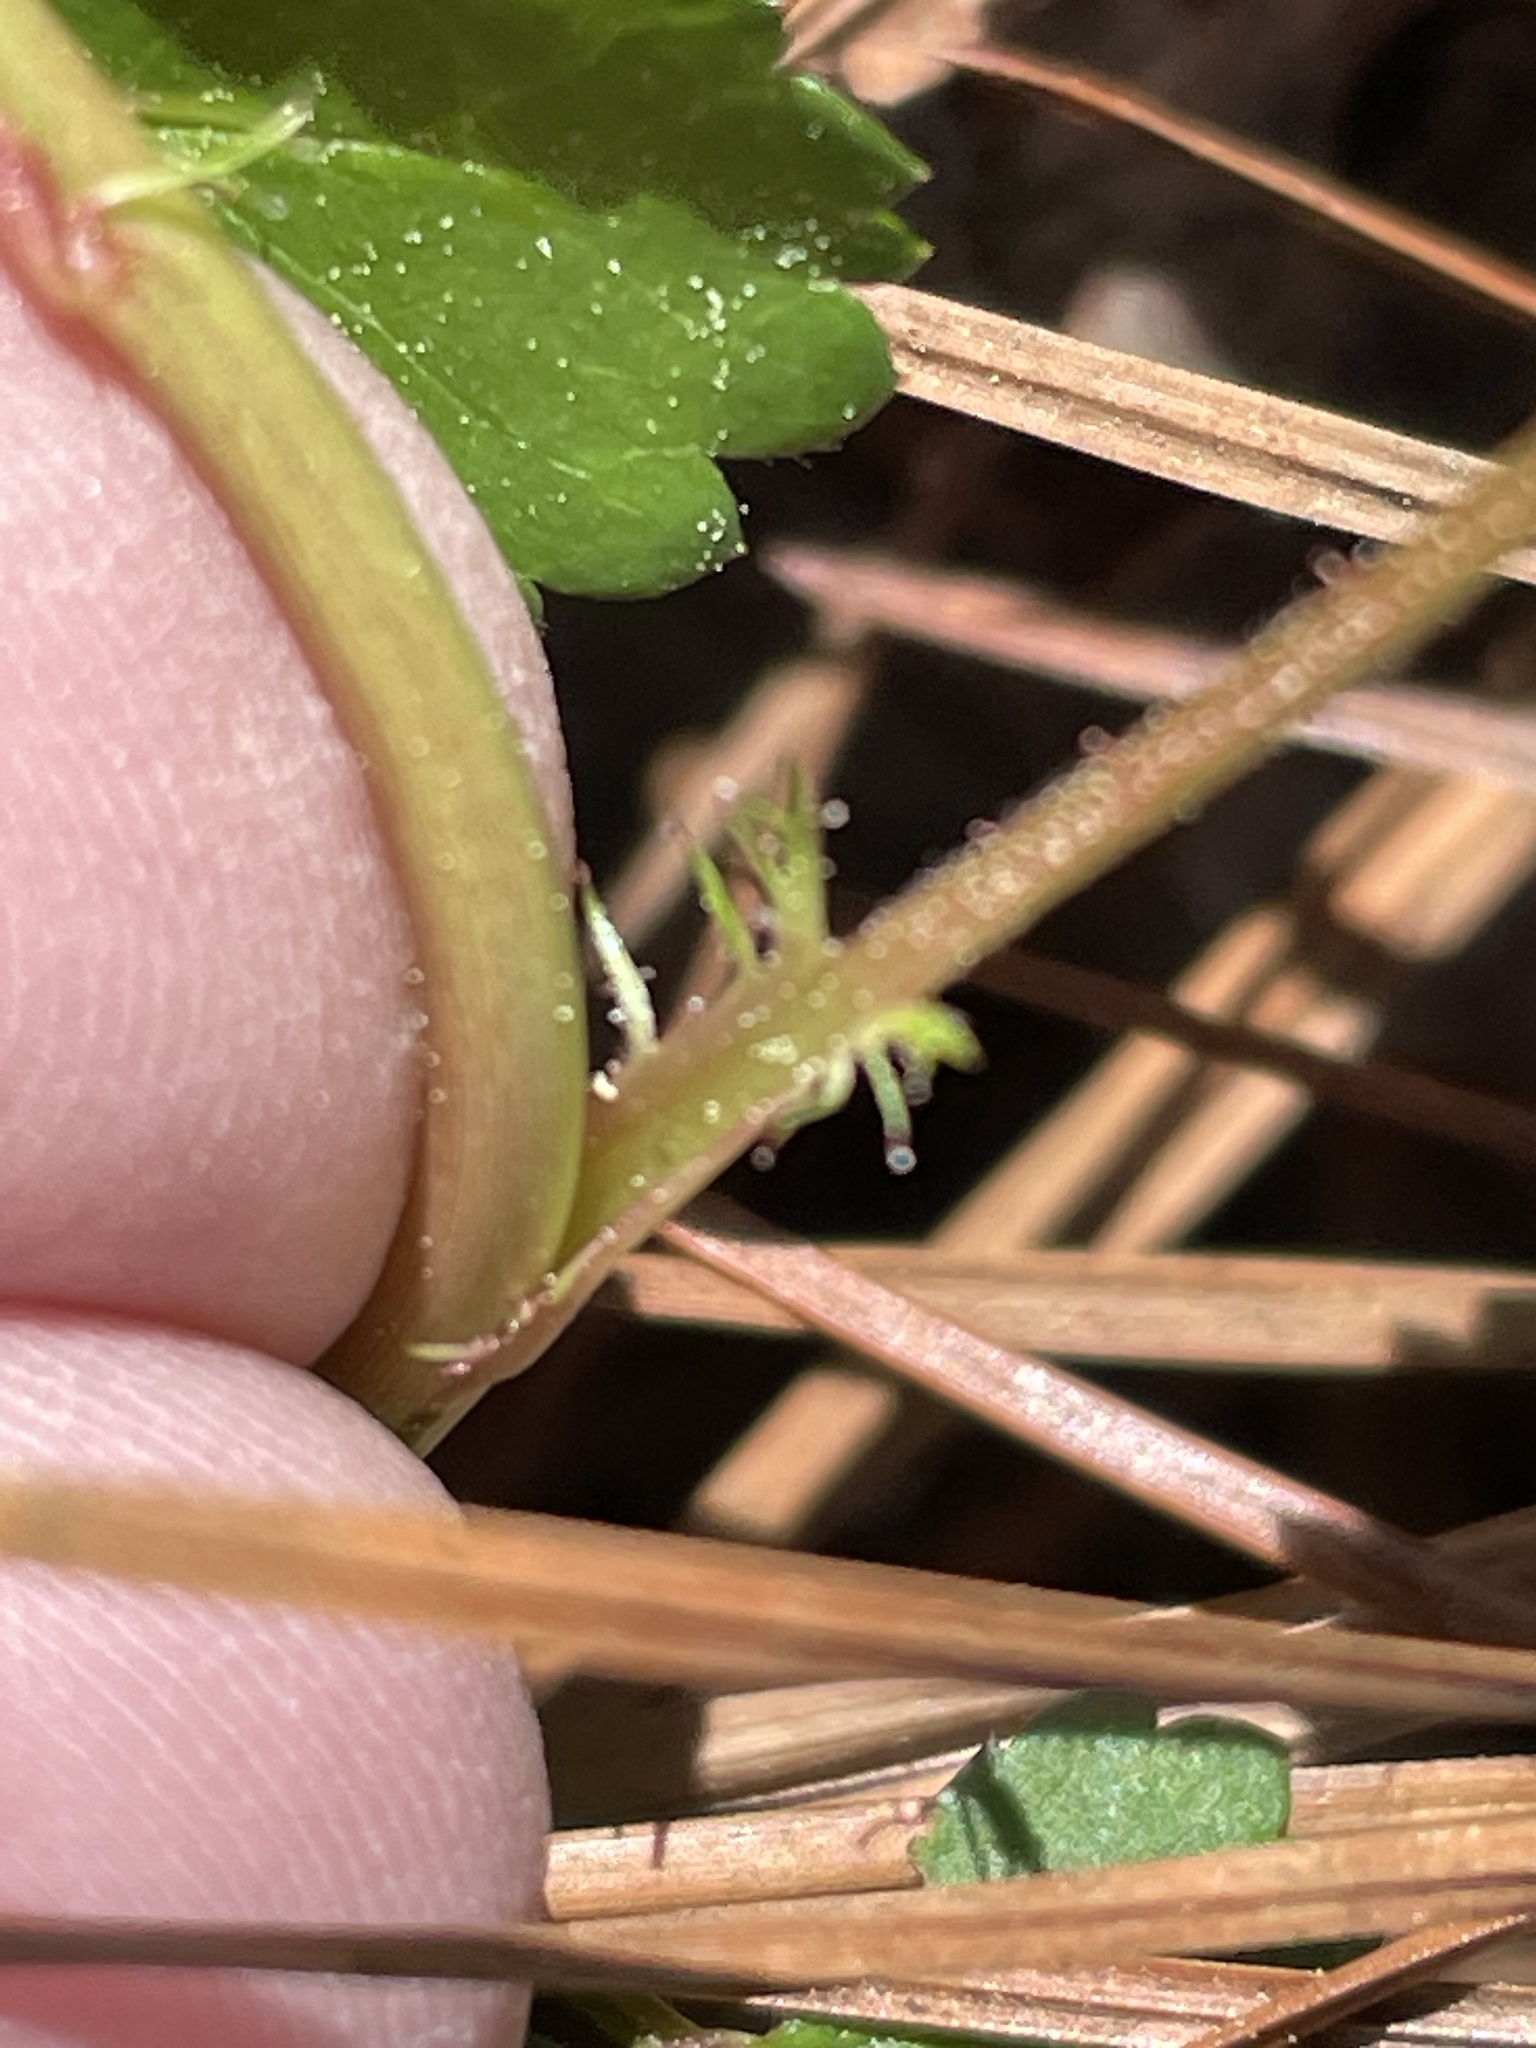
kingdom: Plantae
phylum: Tracheophyta
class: Magnoliopsida
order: Rosales
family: Rosaceae
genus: Rosa
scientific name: Rosa multiflora
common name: Multiflora rose
